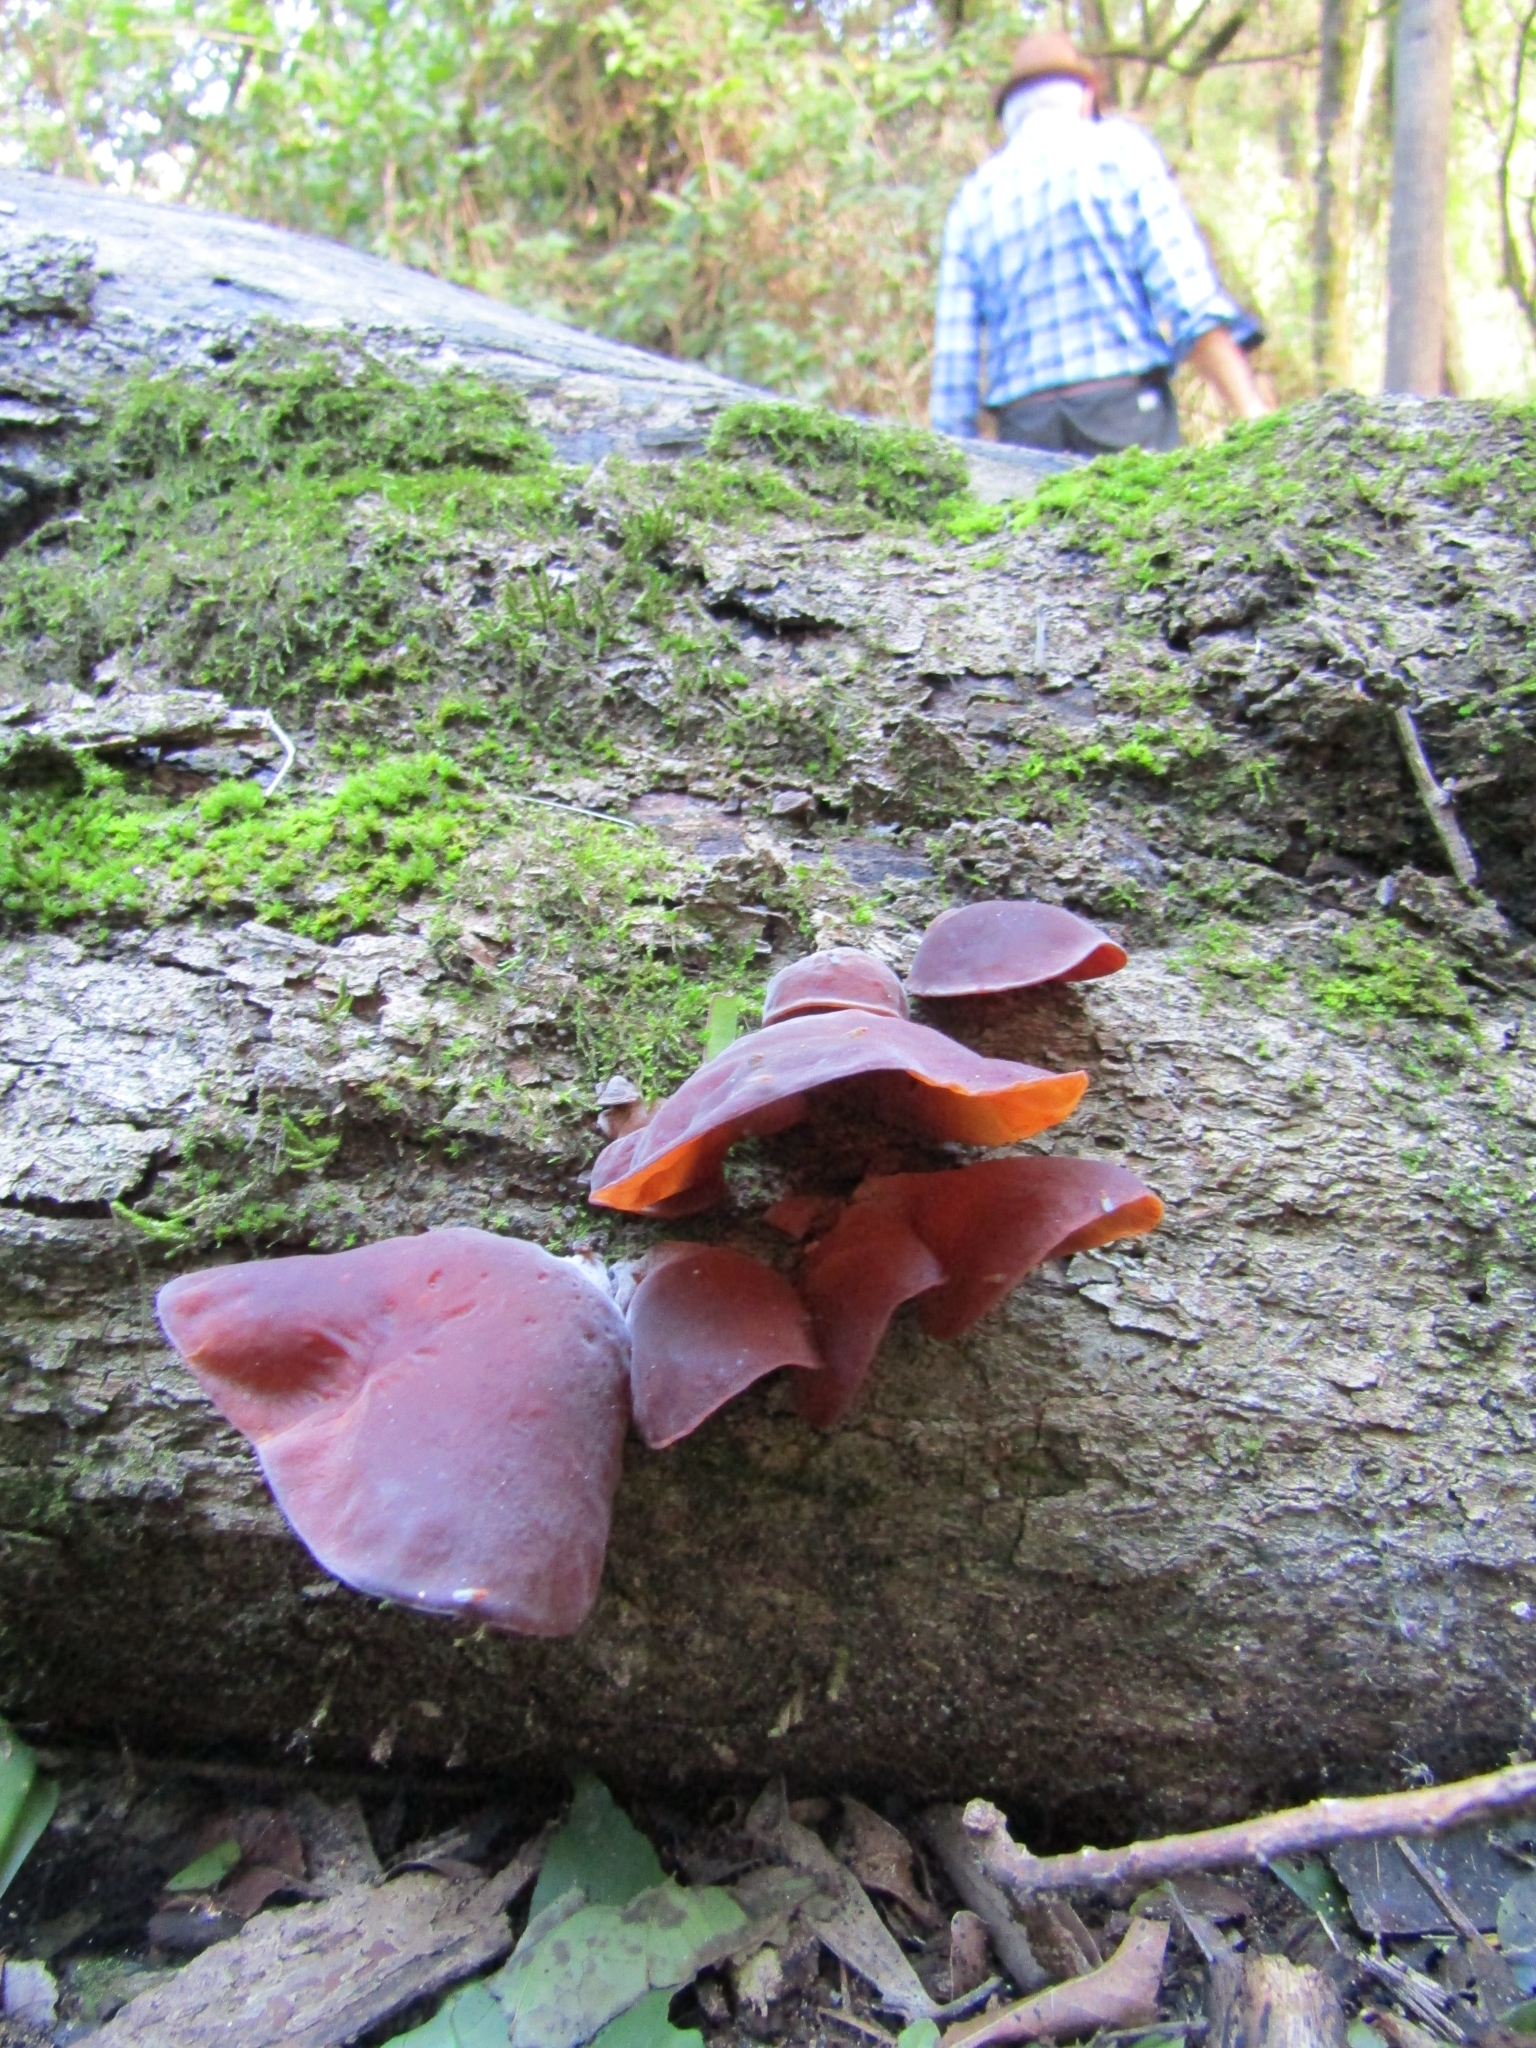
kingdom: Fungi
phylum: Basidiomycota
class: Agaricomycetes
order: Auriculariales
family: Auriculariaceae
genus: Auricularia
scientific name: Auricularia fuscosuccinea
